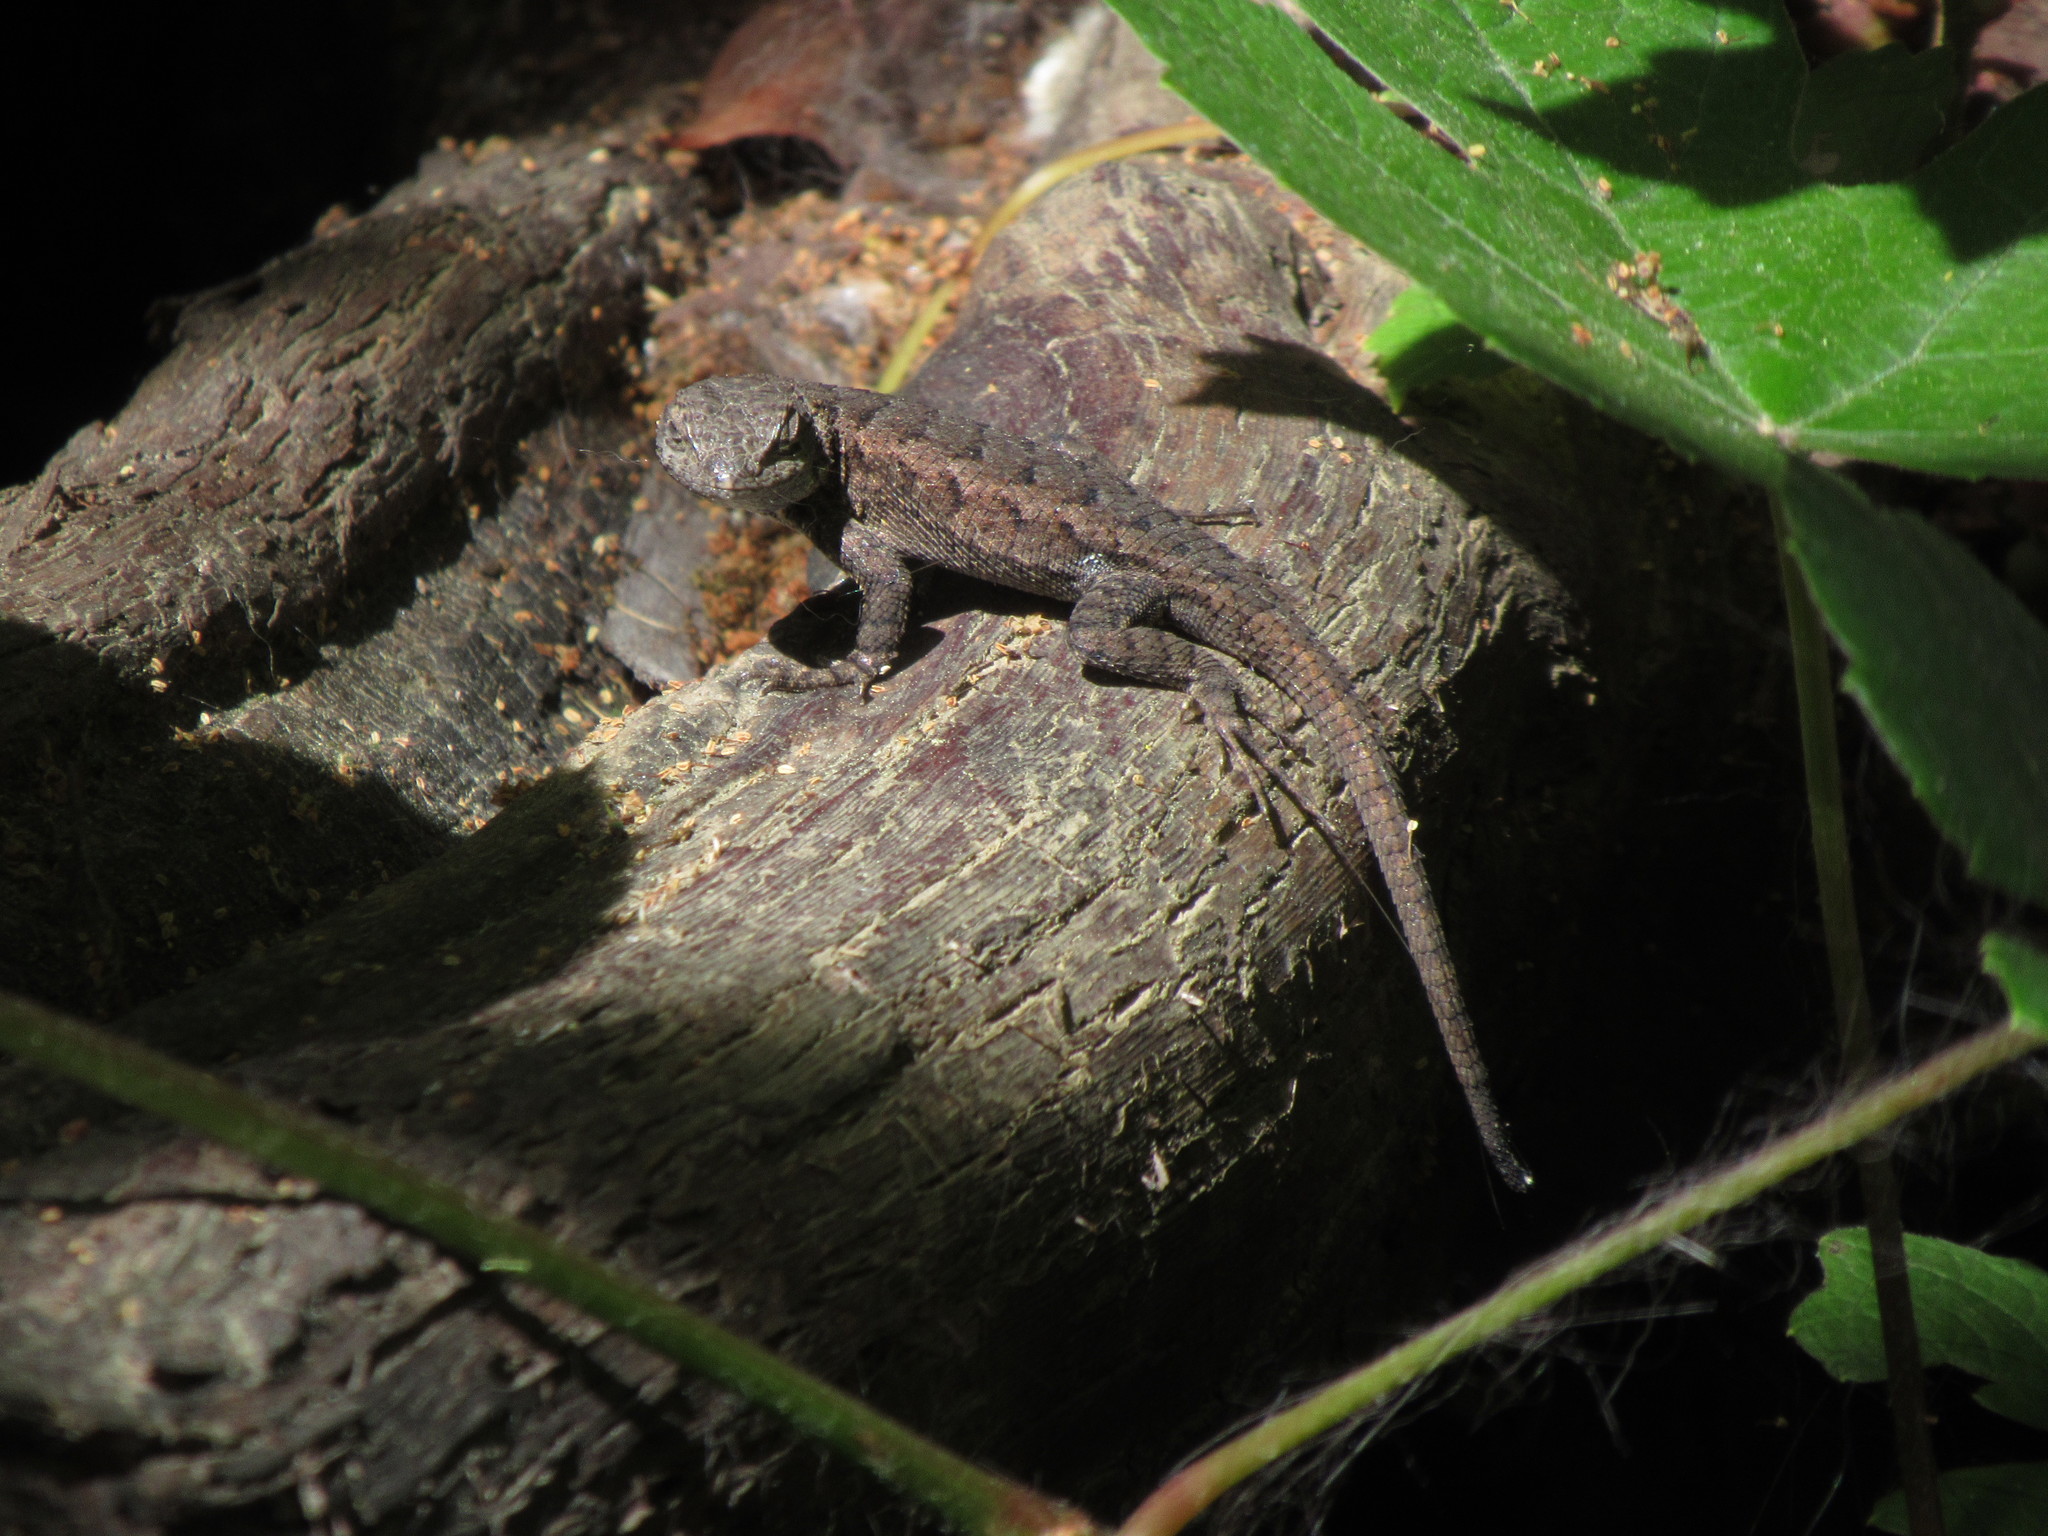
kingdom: Animalia
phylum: Chordata
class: Squamata
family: Phrynosomatidae
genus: Sceloporus
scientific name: Sceloporus occidentalis
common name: Western fence lizard
